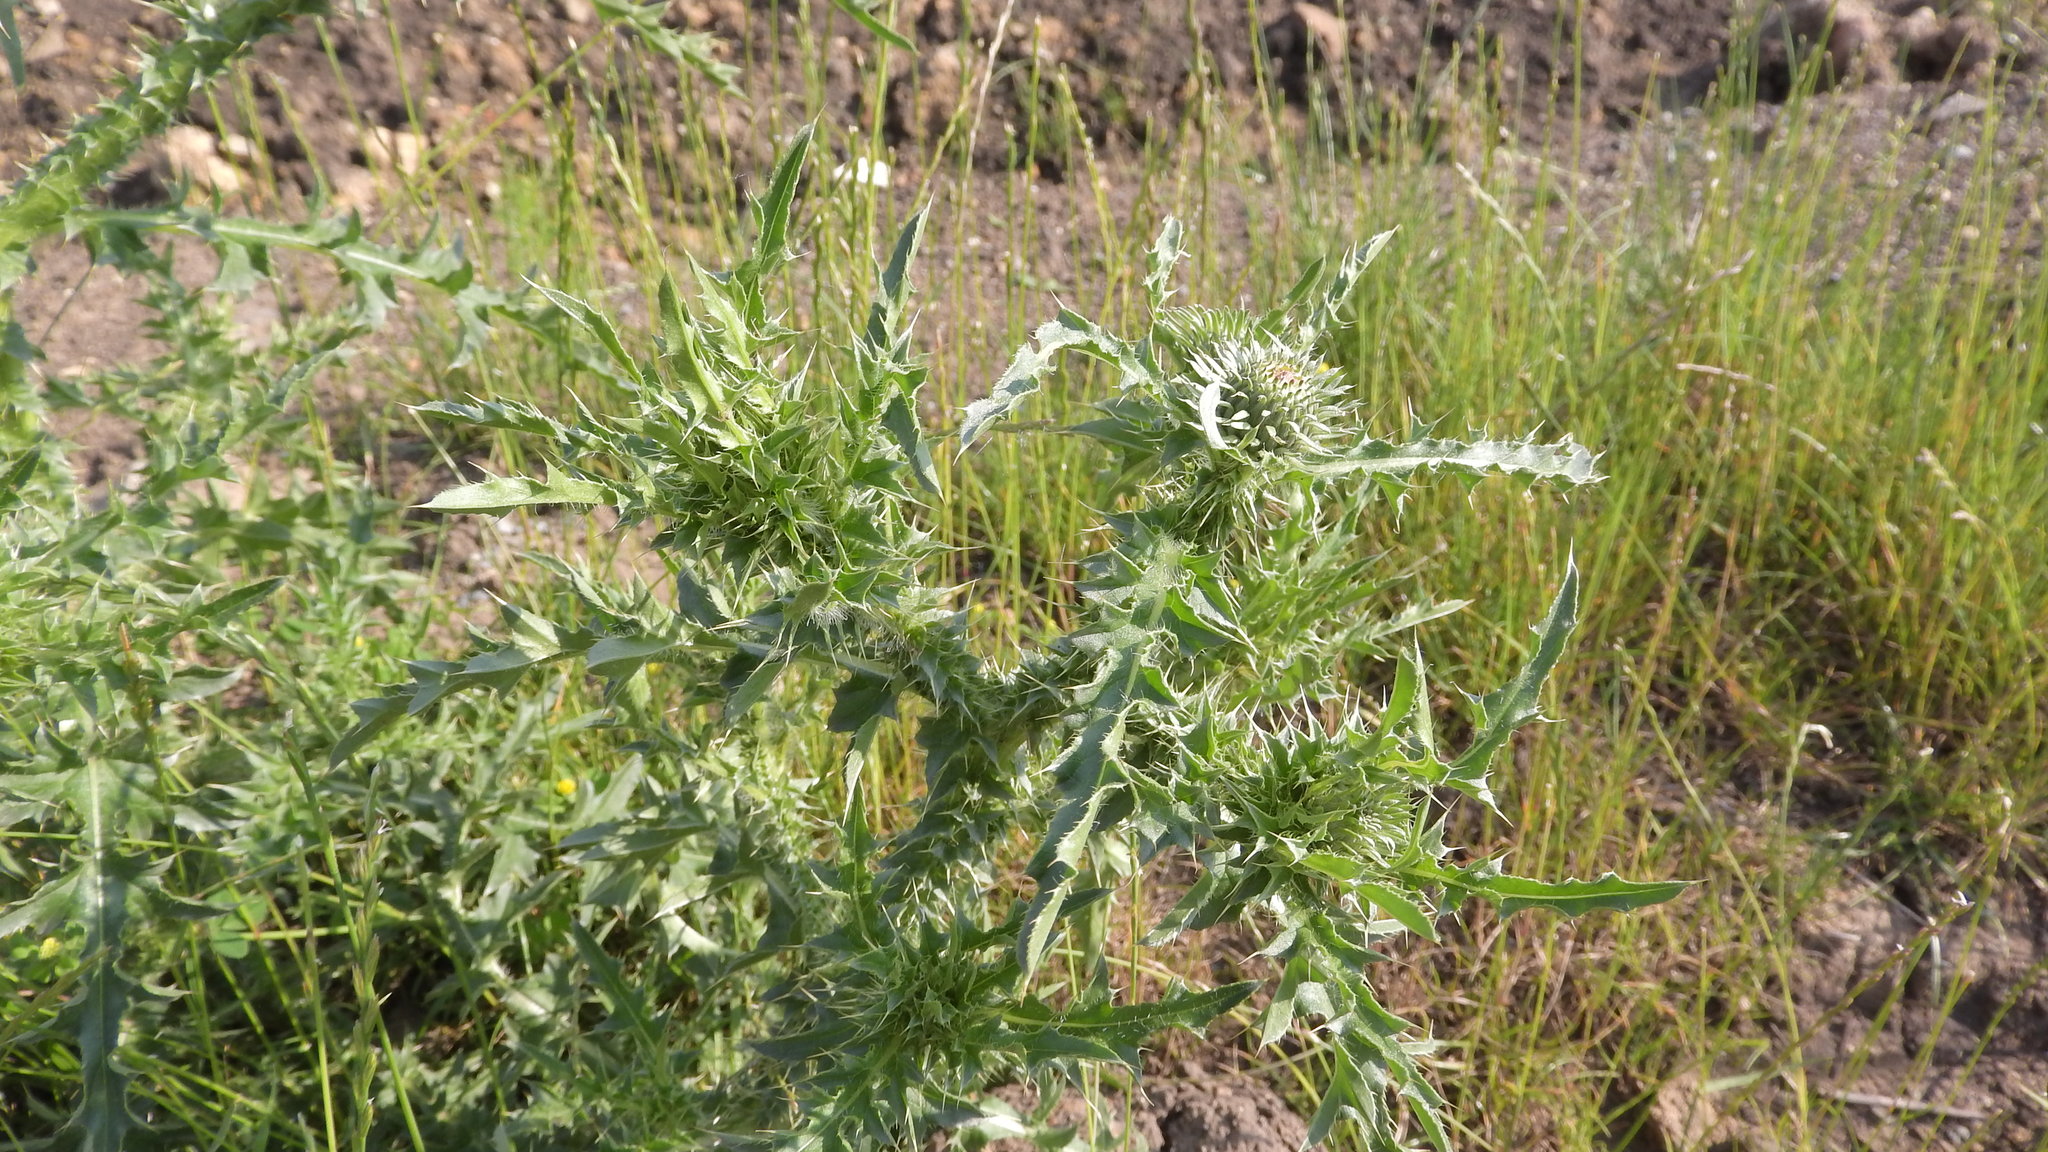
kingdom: Plantae
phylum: Tracheophyta
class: Magnoliopsida
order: Asterales
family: Asteraceae
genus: Carduus
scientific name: Carduus acanthoides
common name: Plumeless thistle
